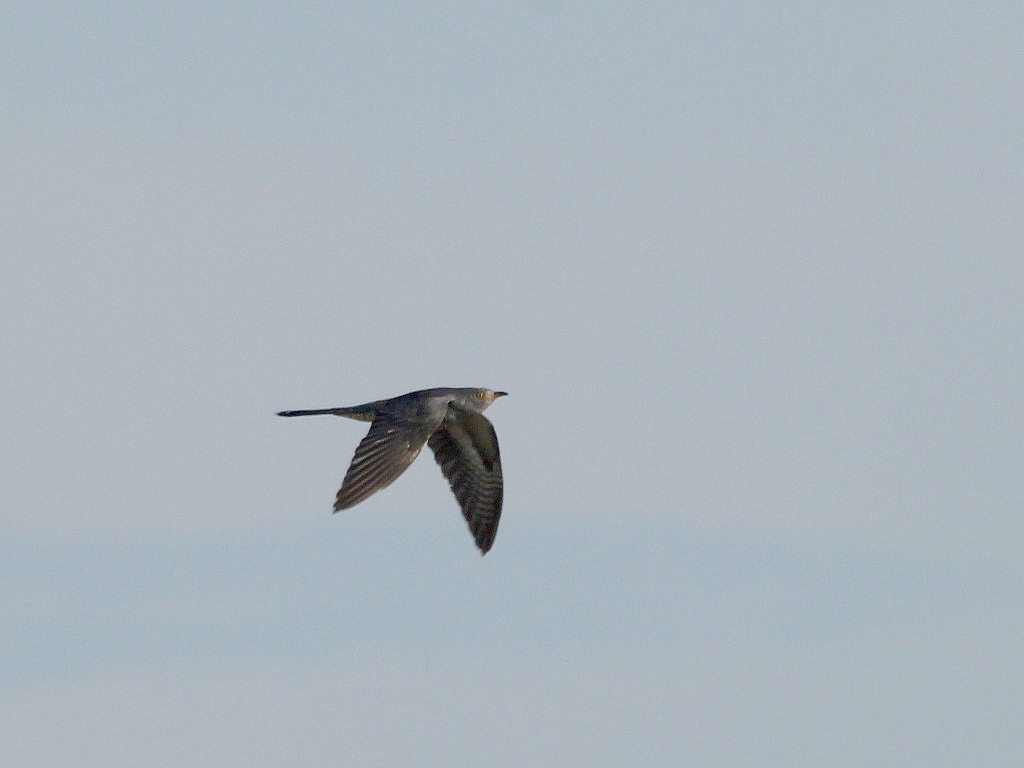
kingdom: Animalia
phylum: Chordata
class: Aves
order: Cuculiformes
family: Cuculidae
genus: Cuculus
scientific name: Cuculus canorus
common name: Common cuckoo
